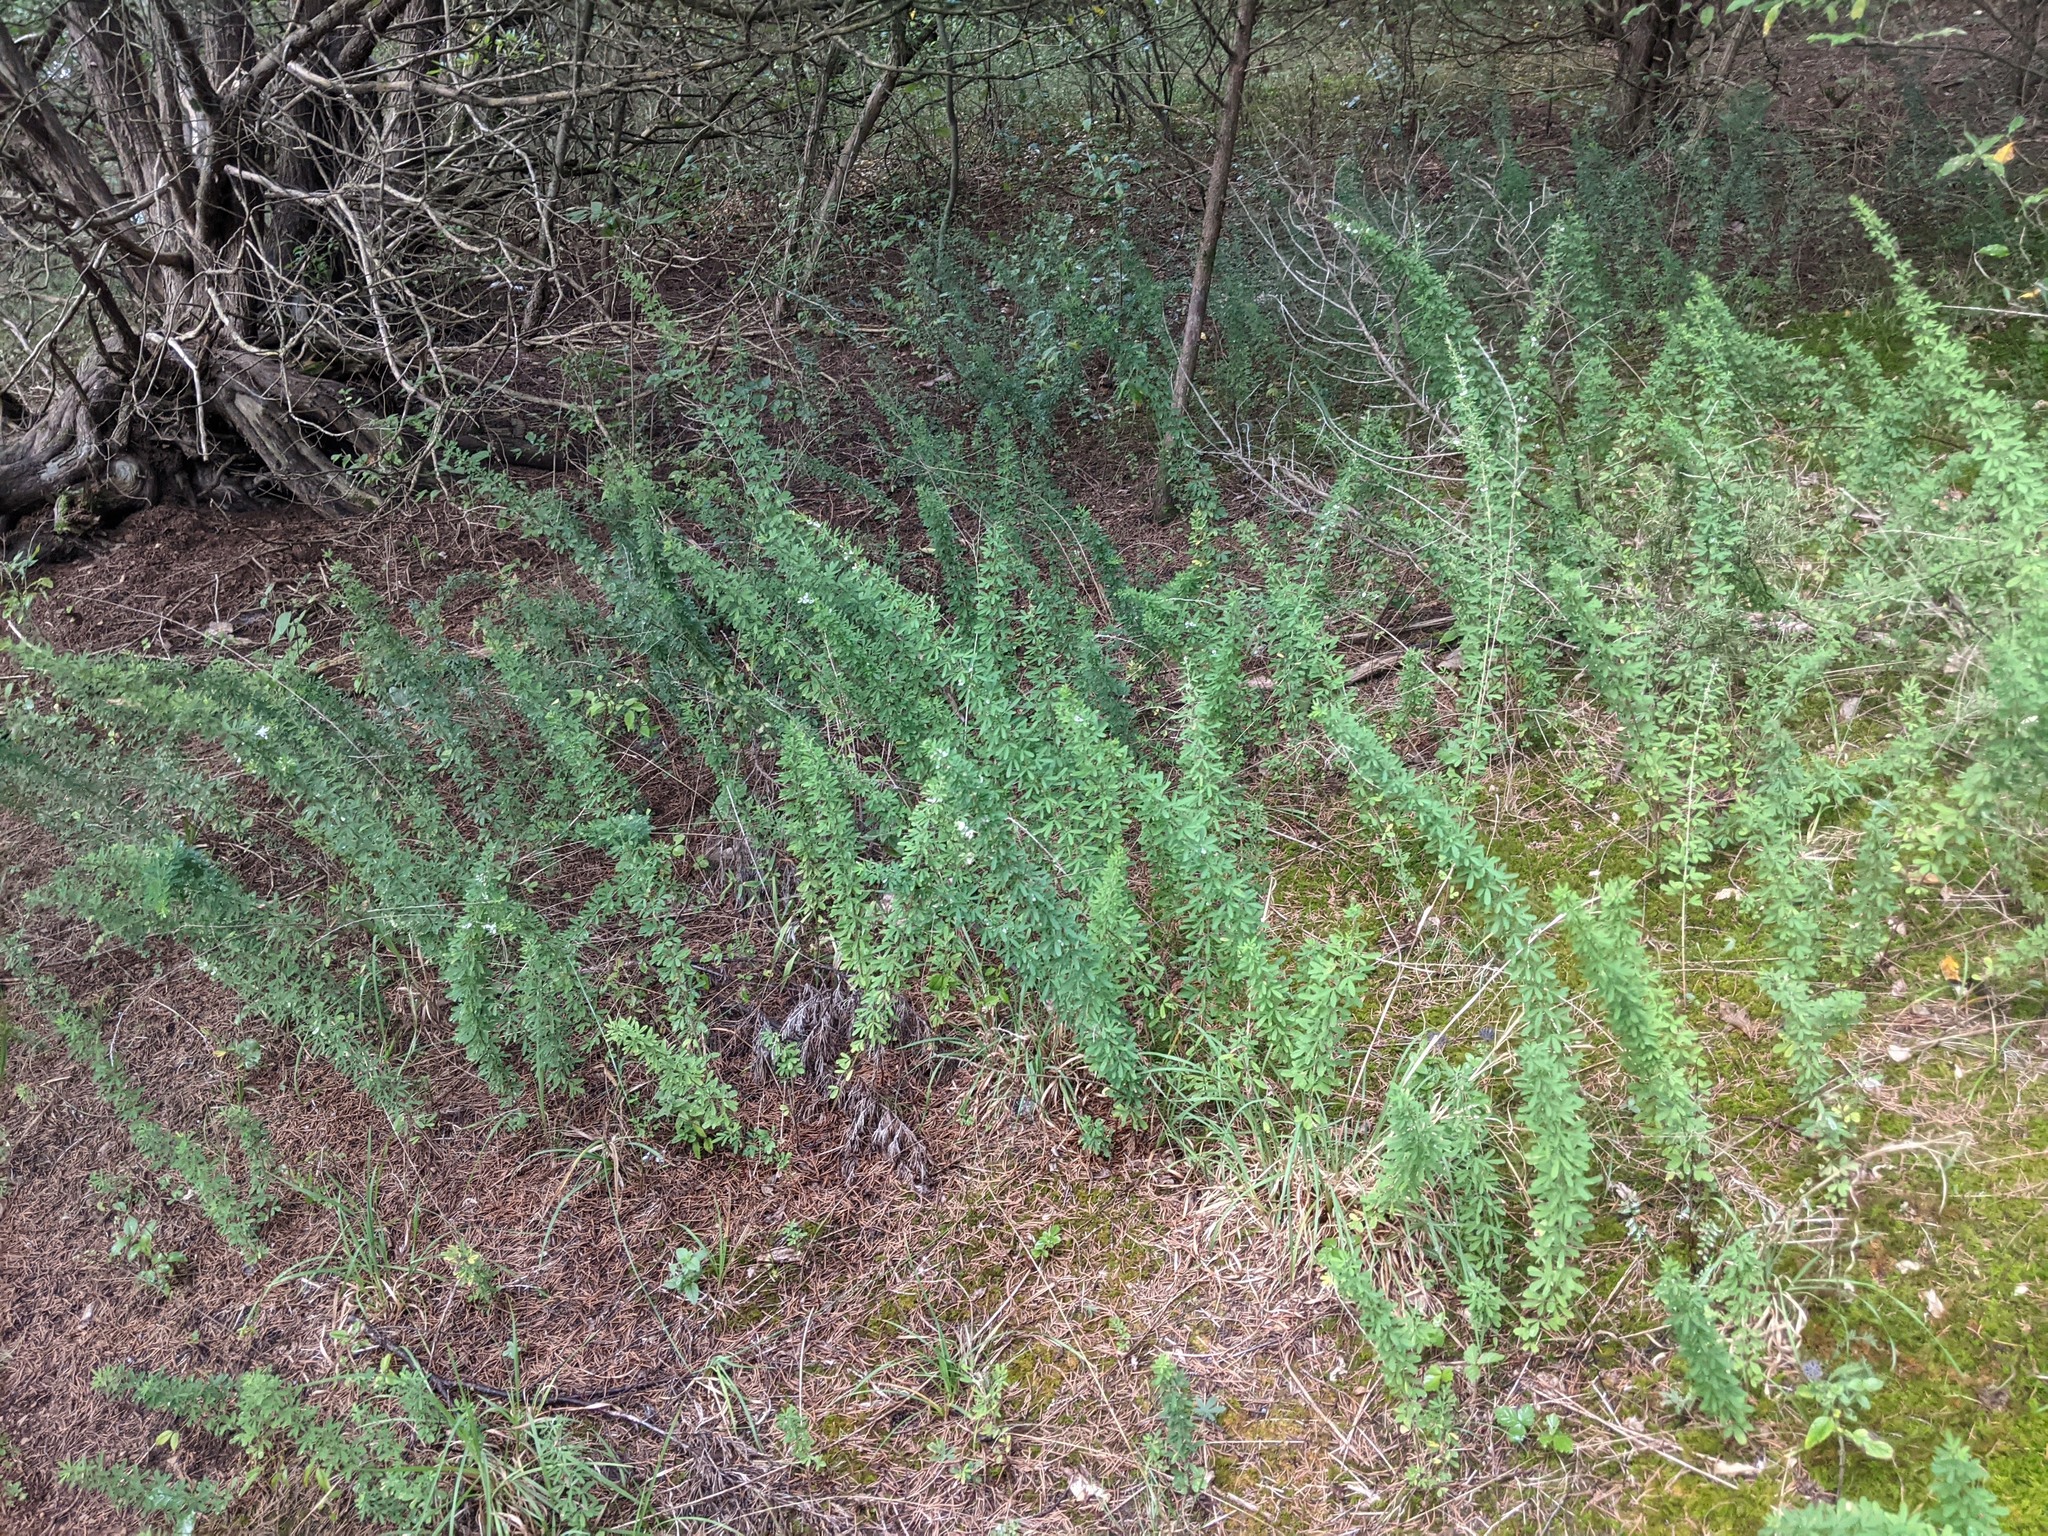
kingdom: Plantae
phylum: Tracheophyta
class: Magnoliopsida
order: Fabales
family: Fabaceae
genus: Lespedeza
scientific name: Lespedeza cuneata
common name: Chinese bush-clover
